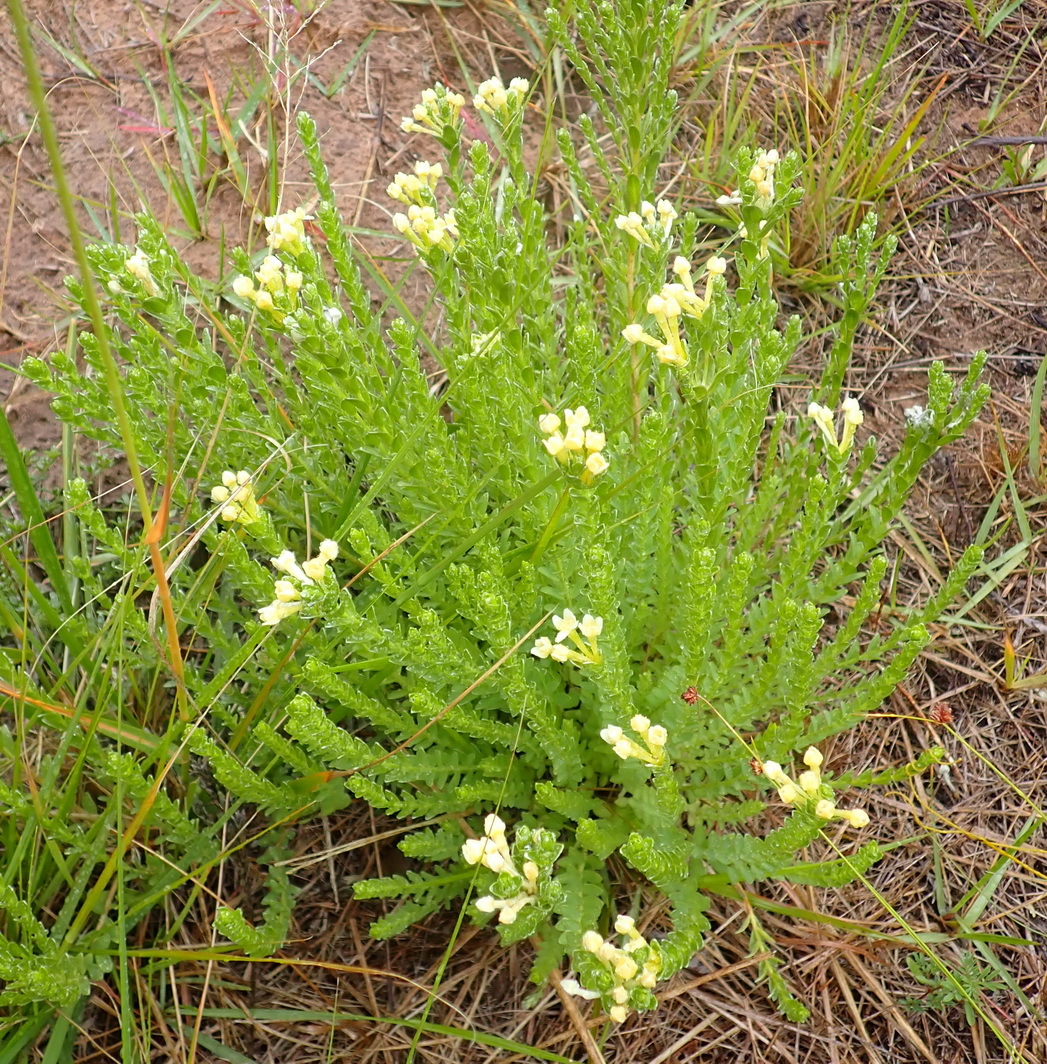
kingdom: Plantae
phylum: Tracheophyta
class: Magnoliopsida
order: Malvales
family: Thymelaeaceae
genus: Gnidia
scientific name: Gnidia chrysophylla
